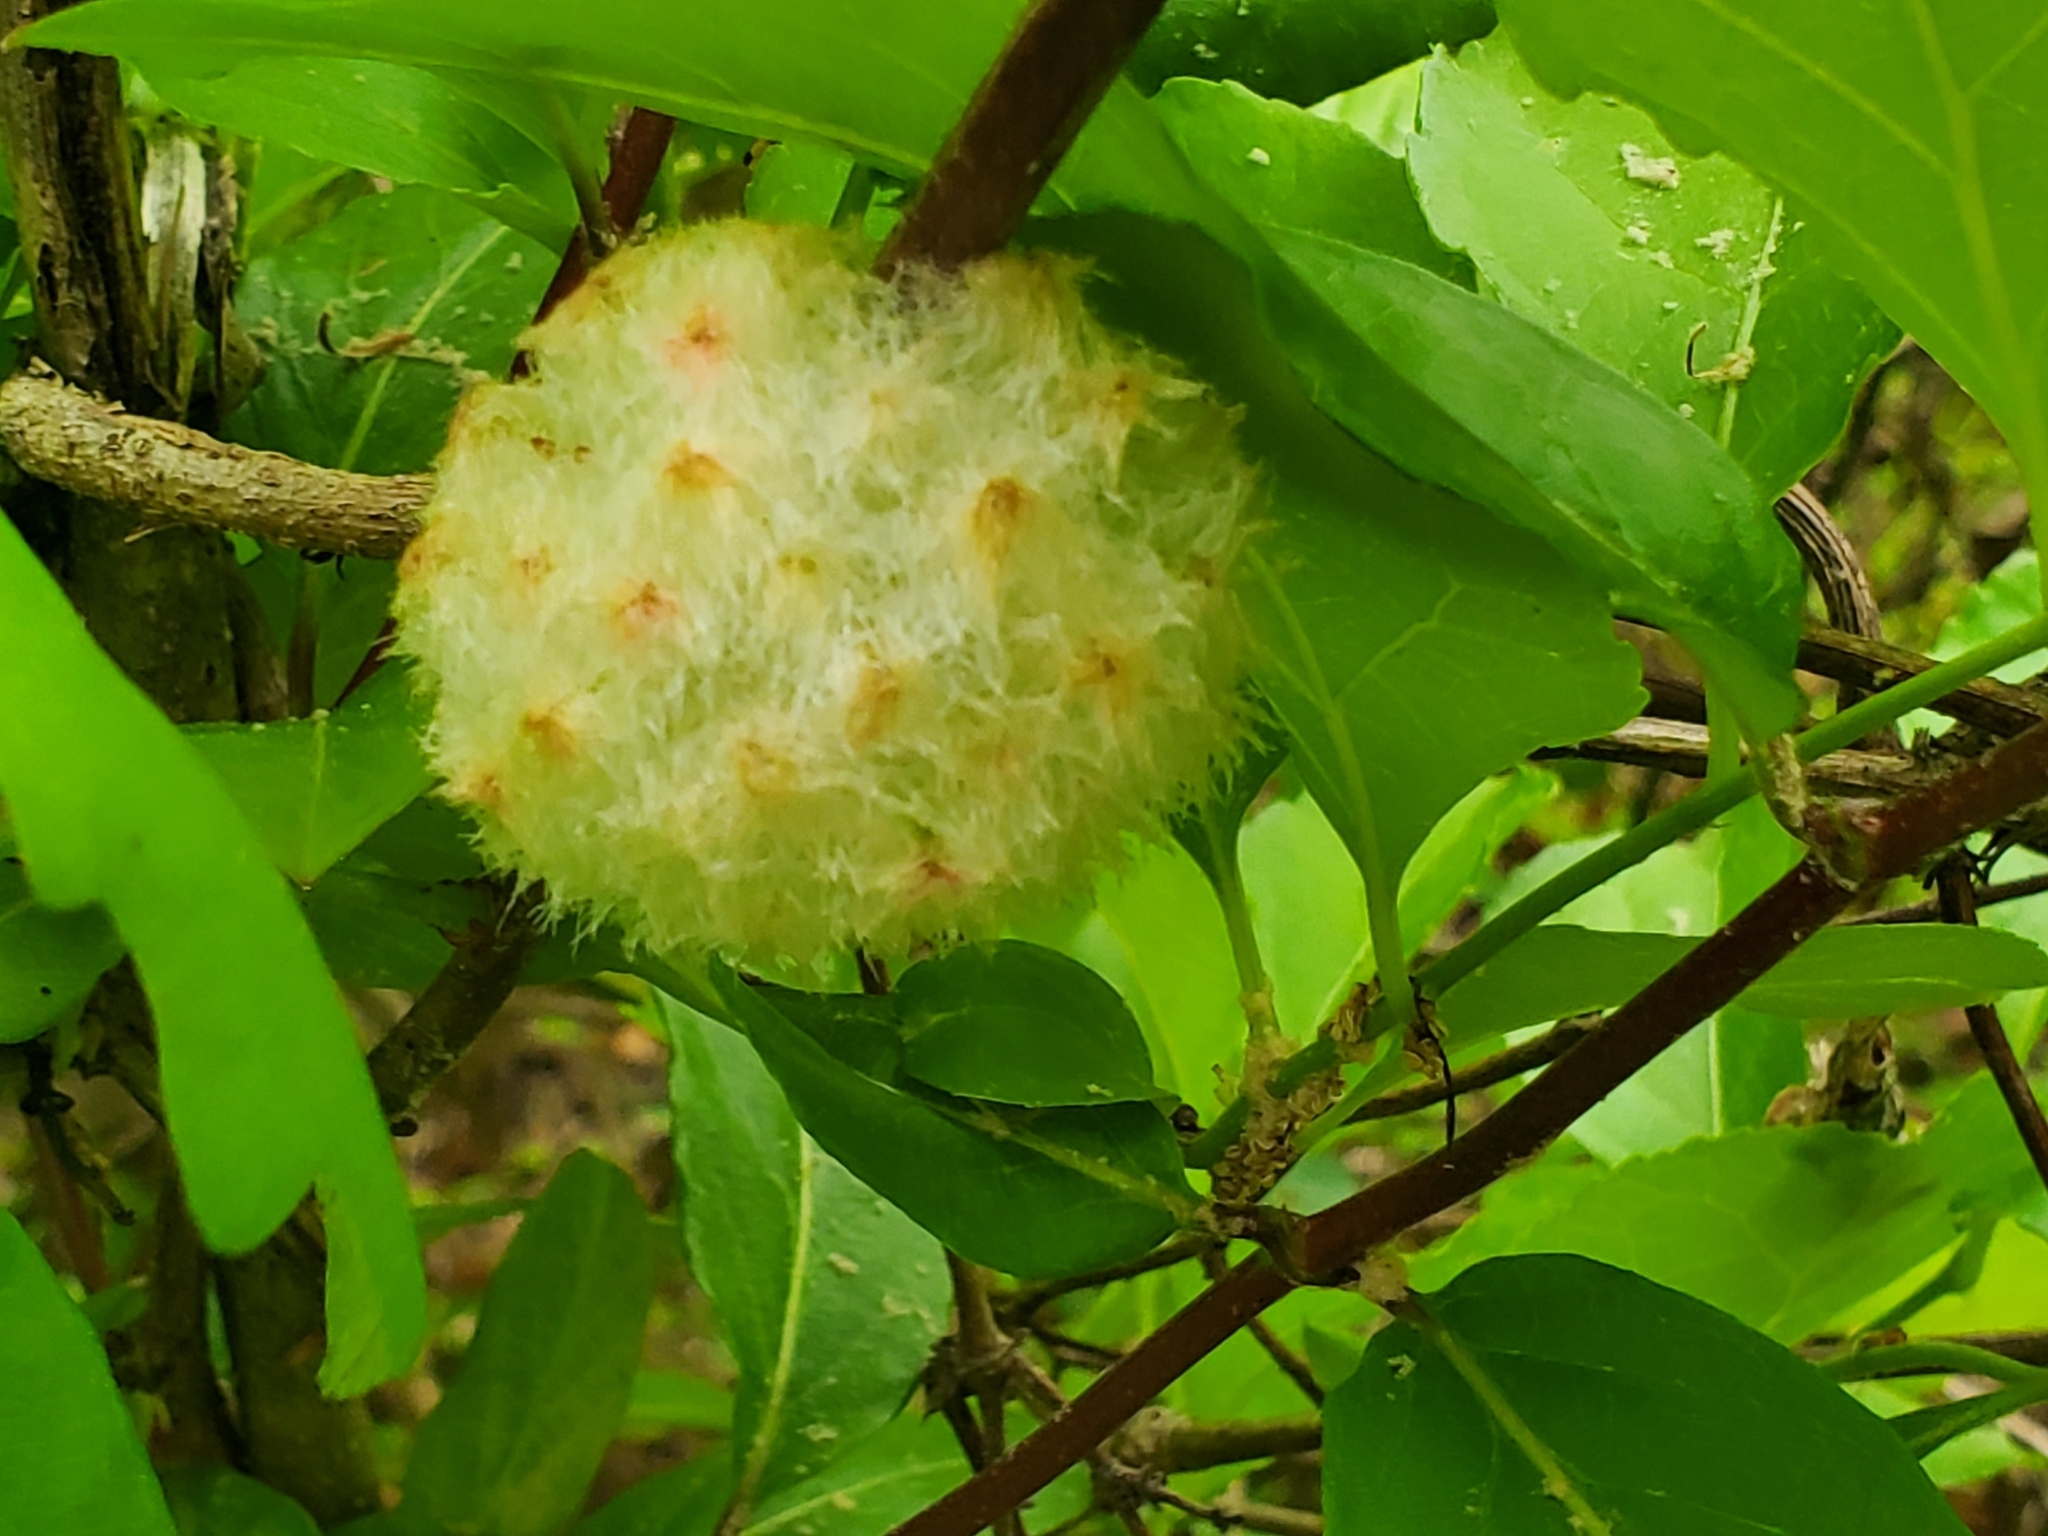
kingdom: Animalia
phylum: Arthropoda
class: Insecta
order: Hymenoptera
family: Cynipidae
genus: Callirhytis
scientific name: Callirhytis
